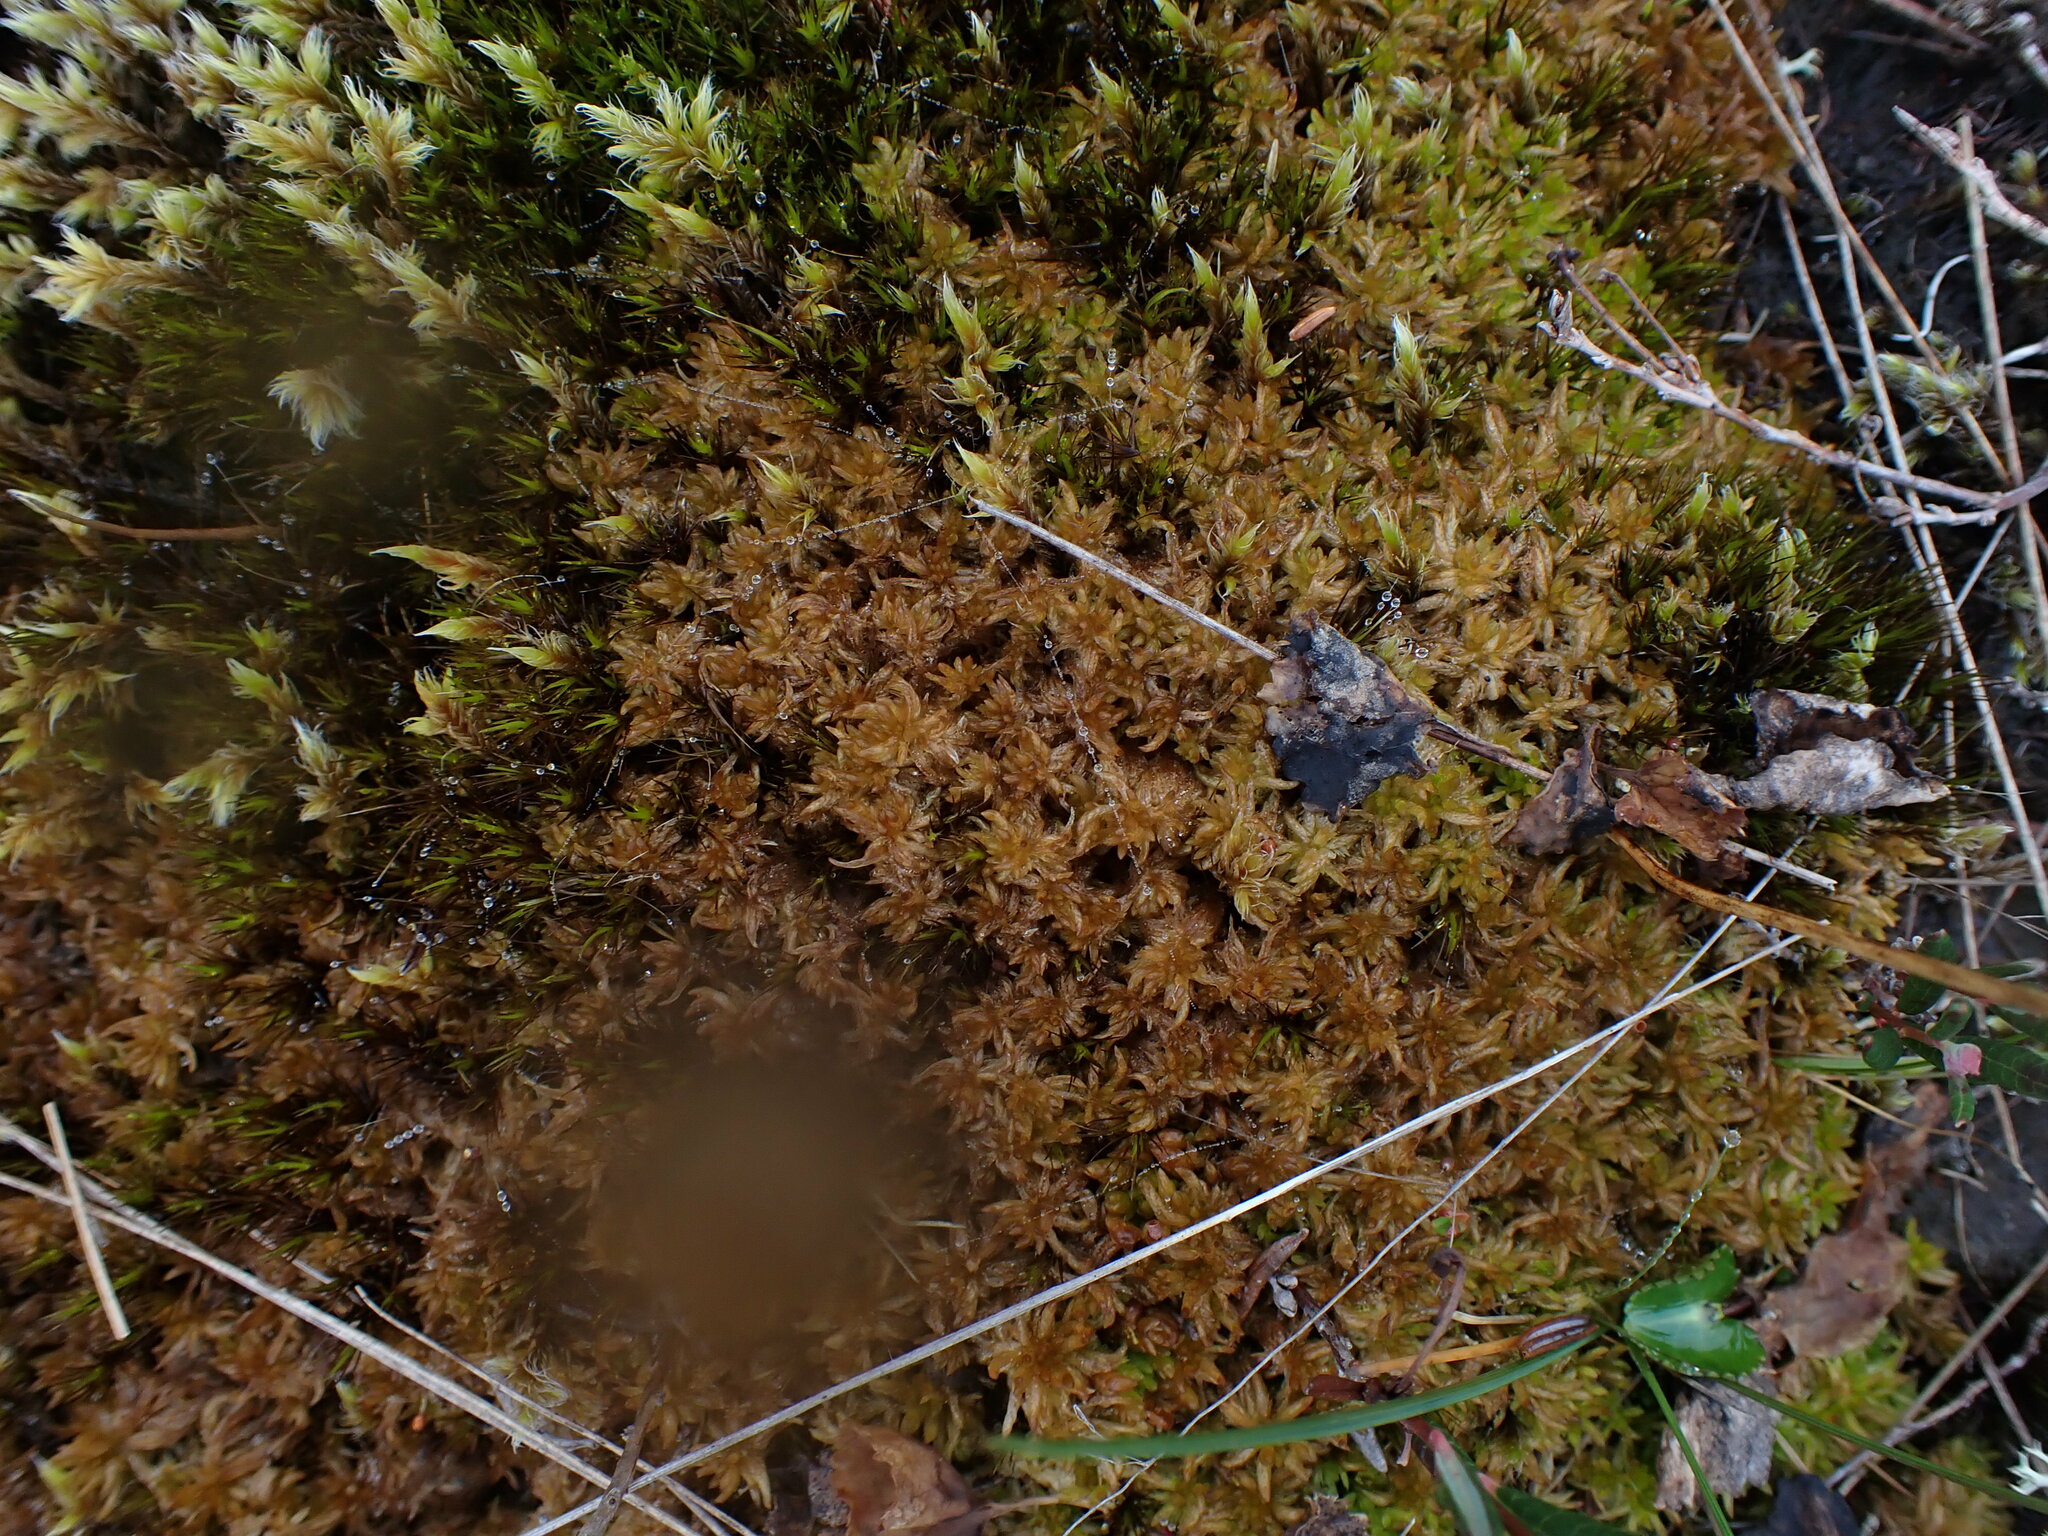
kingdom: Plantae
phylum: Bryophyta
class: Sphagnopsida
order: Sphagnales
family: Sphagnaceae
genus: Sphagnum
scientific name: Sphagnum tenellum
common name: Soft bog-moss
